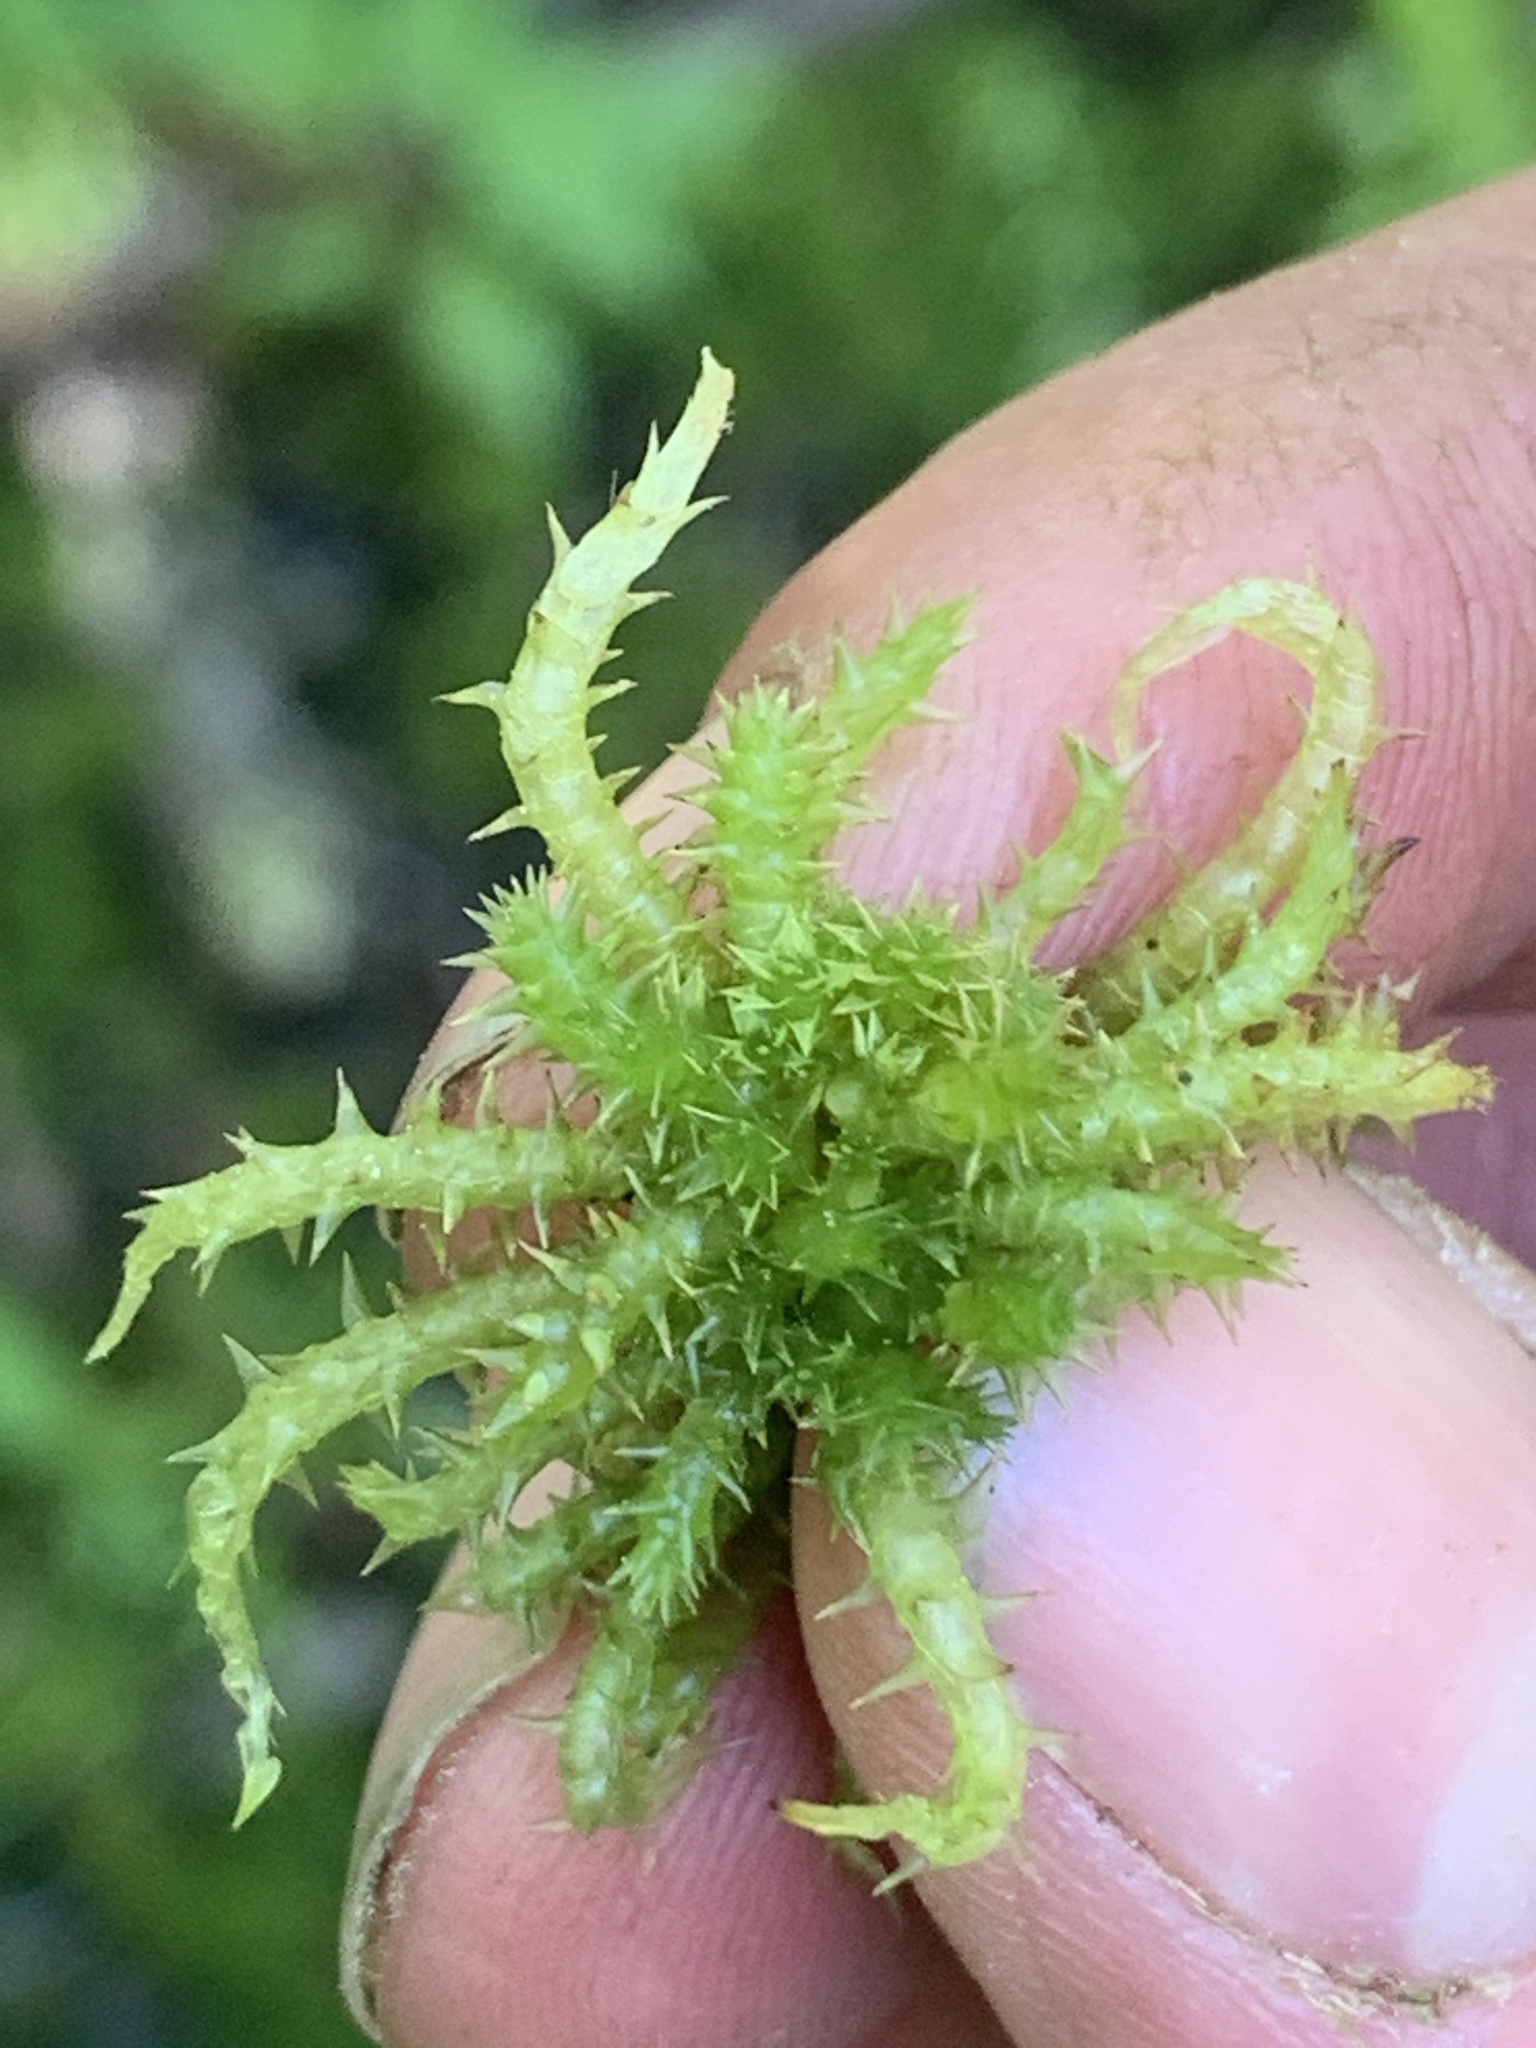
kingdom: Plantae
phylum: Bryophyta
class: Sphagnopsida
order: Sphagnales
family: Sphagnaceae
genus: Sphagnum
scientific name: Sphagnum squarrosum
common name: Shaggy peat moss
